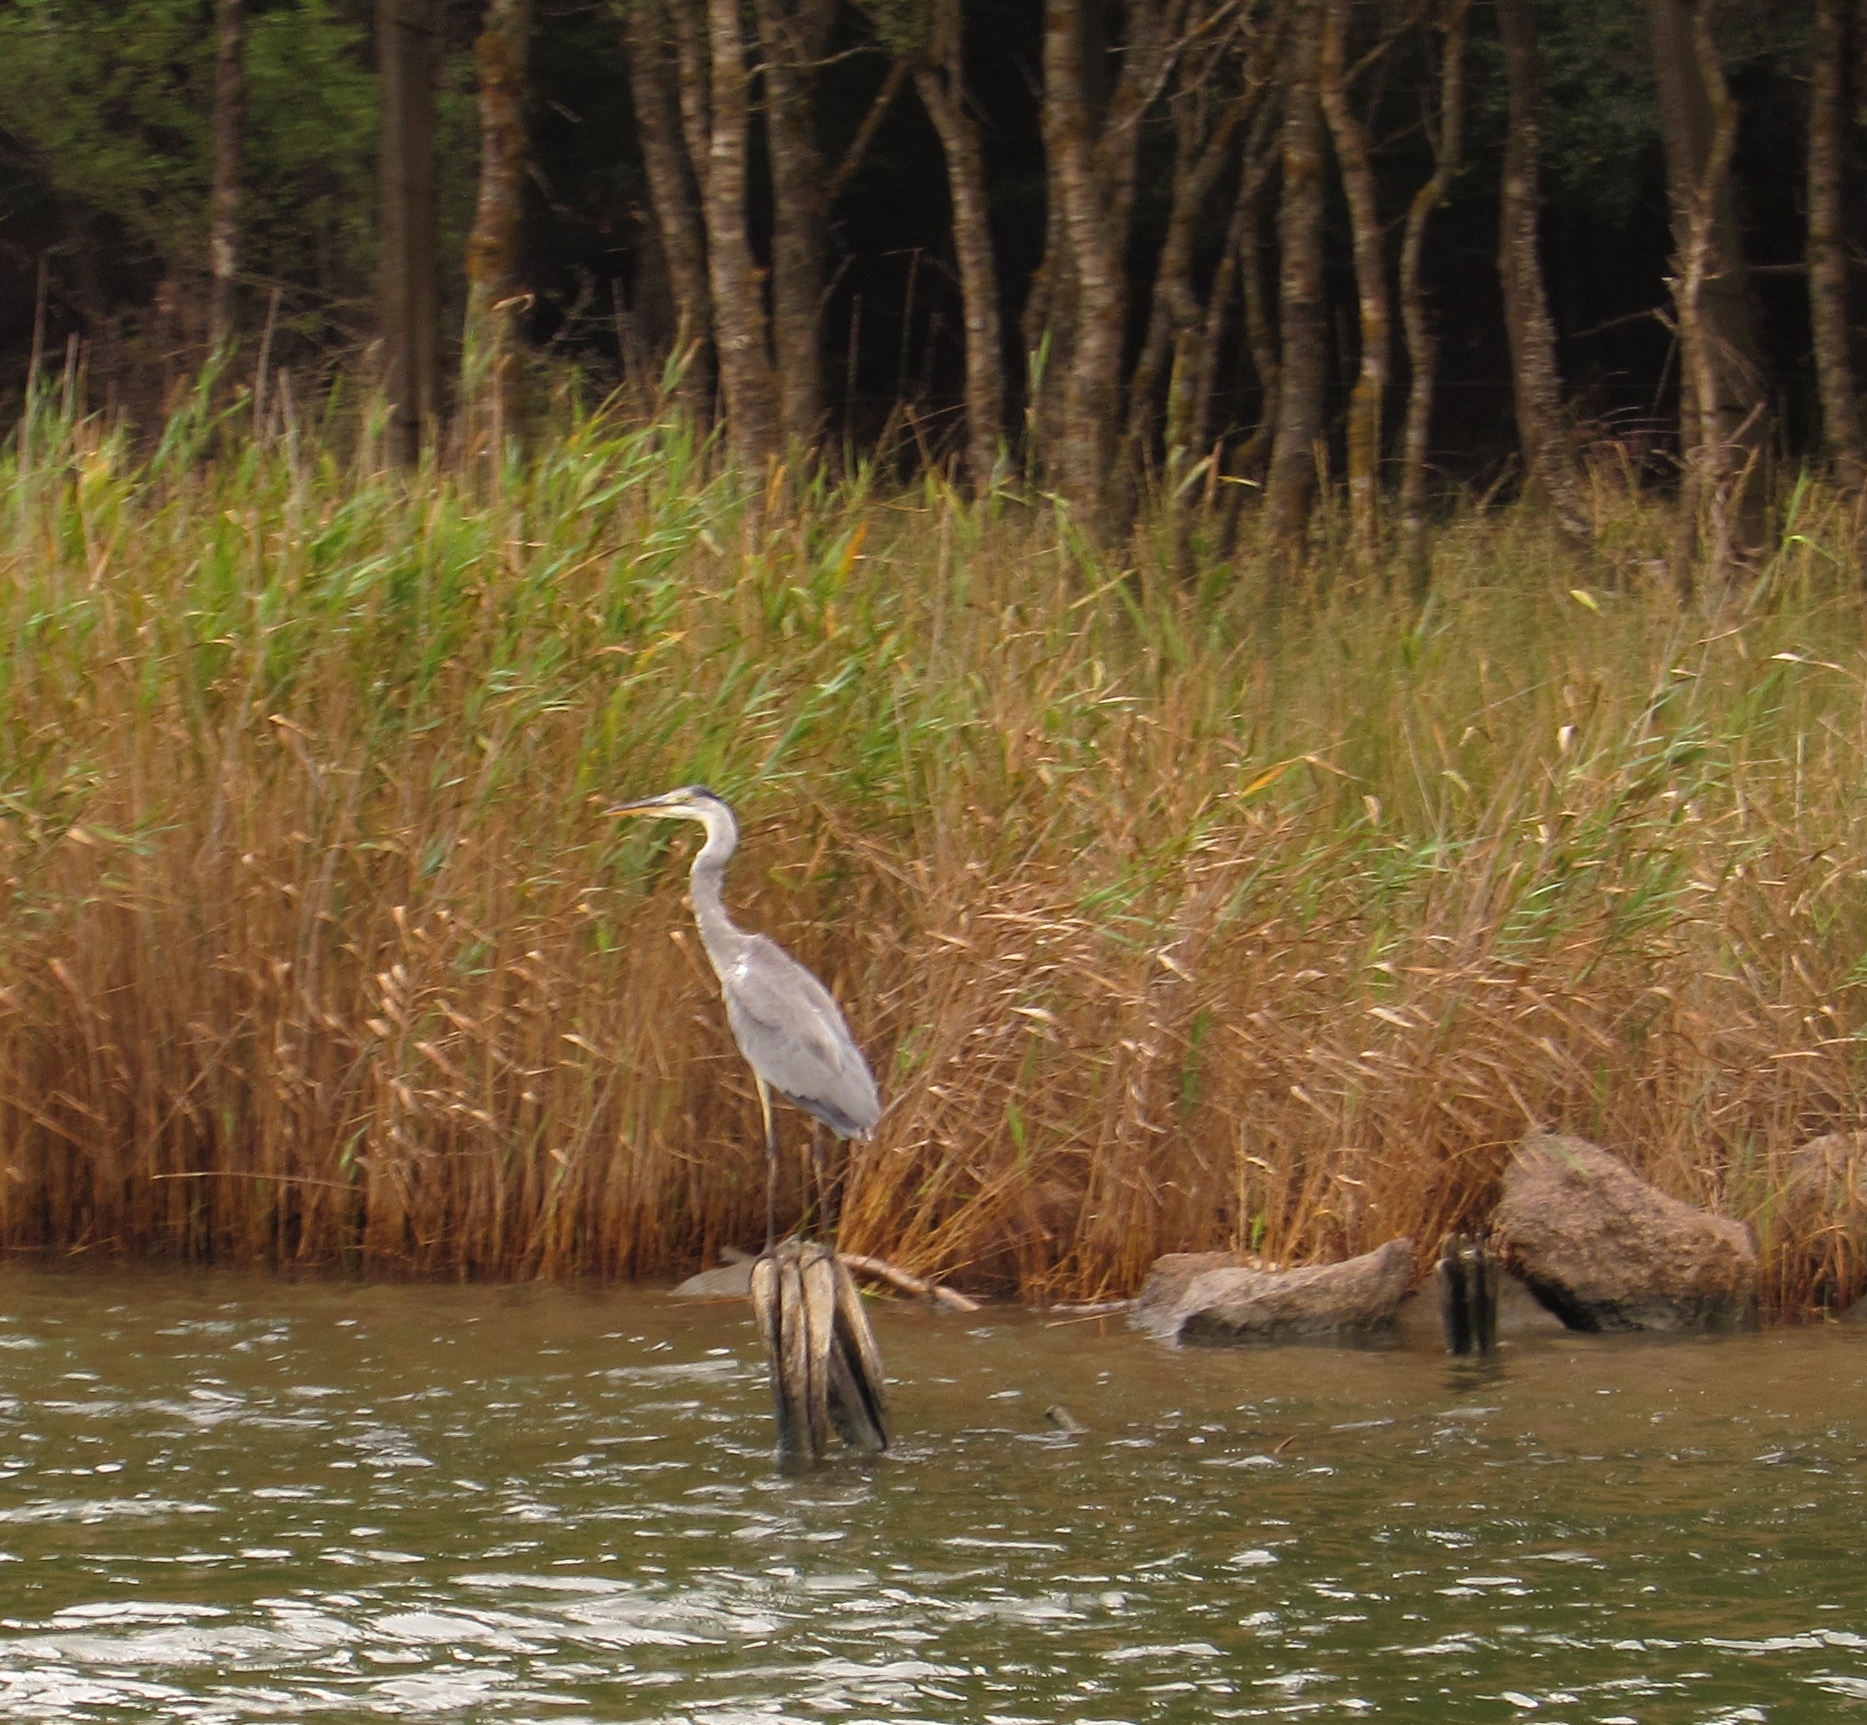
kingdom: Animalia
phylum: Chordata
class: Aves
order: Pelecaniformes
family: Ardeidae
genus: Ardea
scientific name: Ardea cinerea
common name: Grey heron
